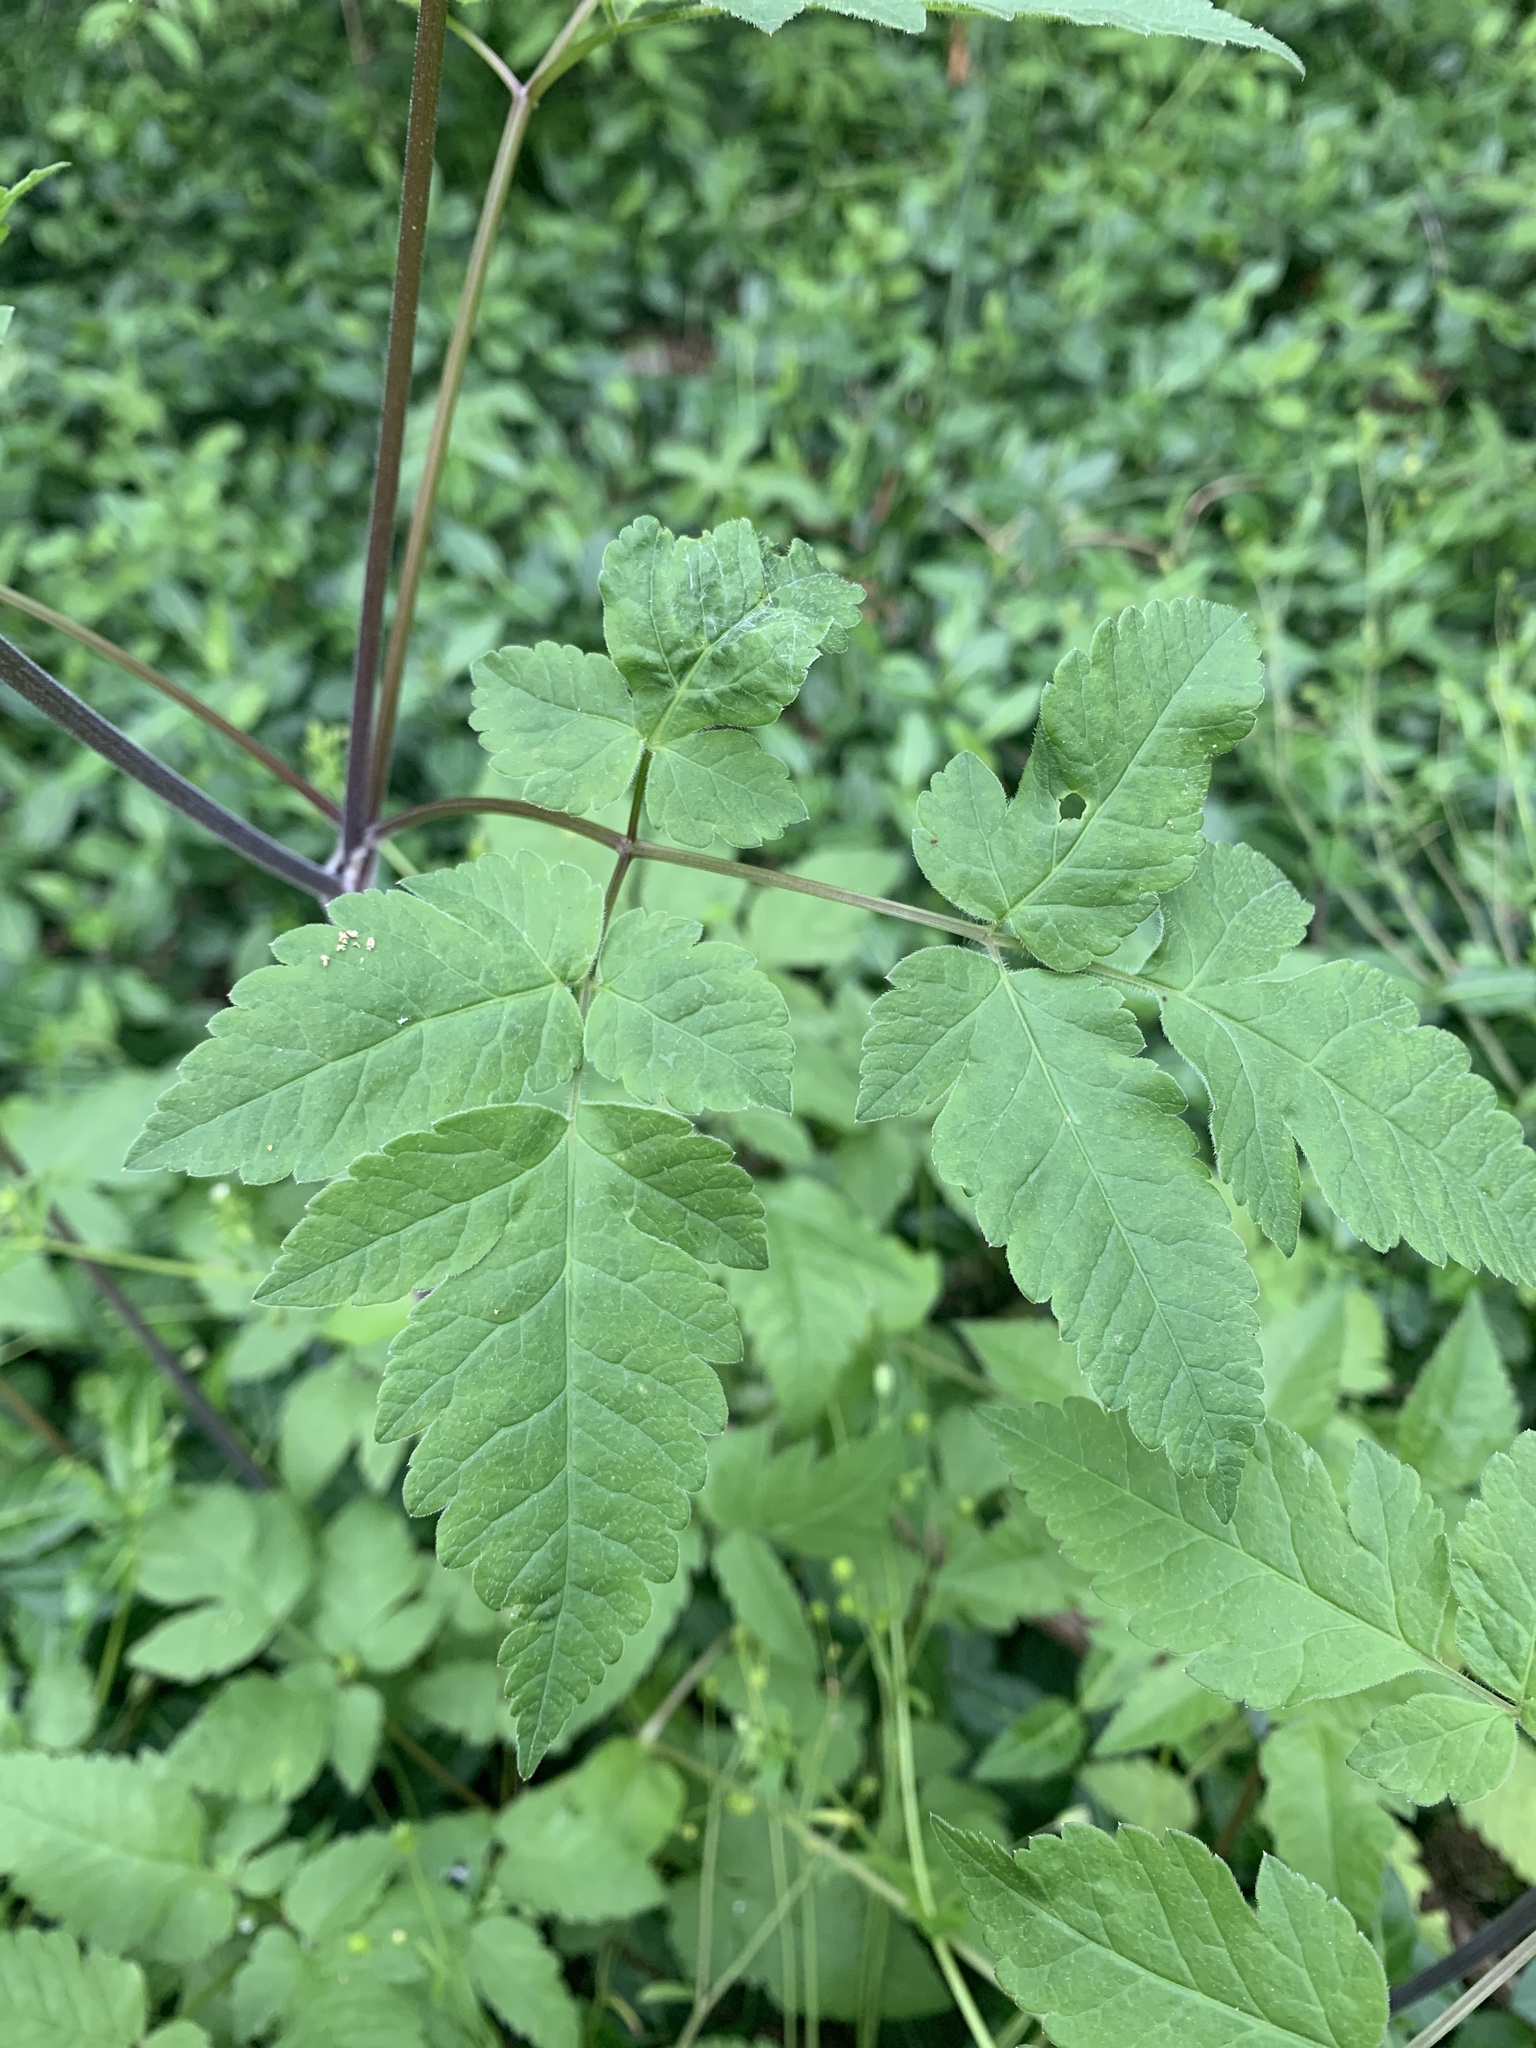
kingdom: Plantae
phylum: Tracheophyta
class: Magnoliopsida
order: Apiales
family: Apiaceae
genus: Osmorhiza
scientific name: Osmorhiza longistylis
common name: Smooth sweet cicely
